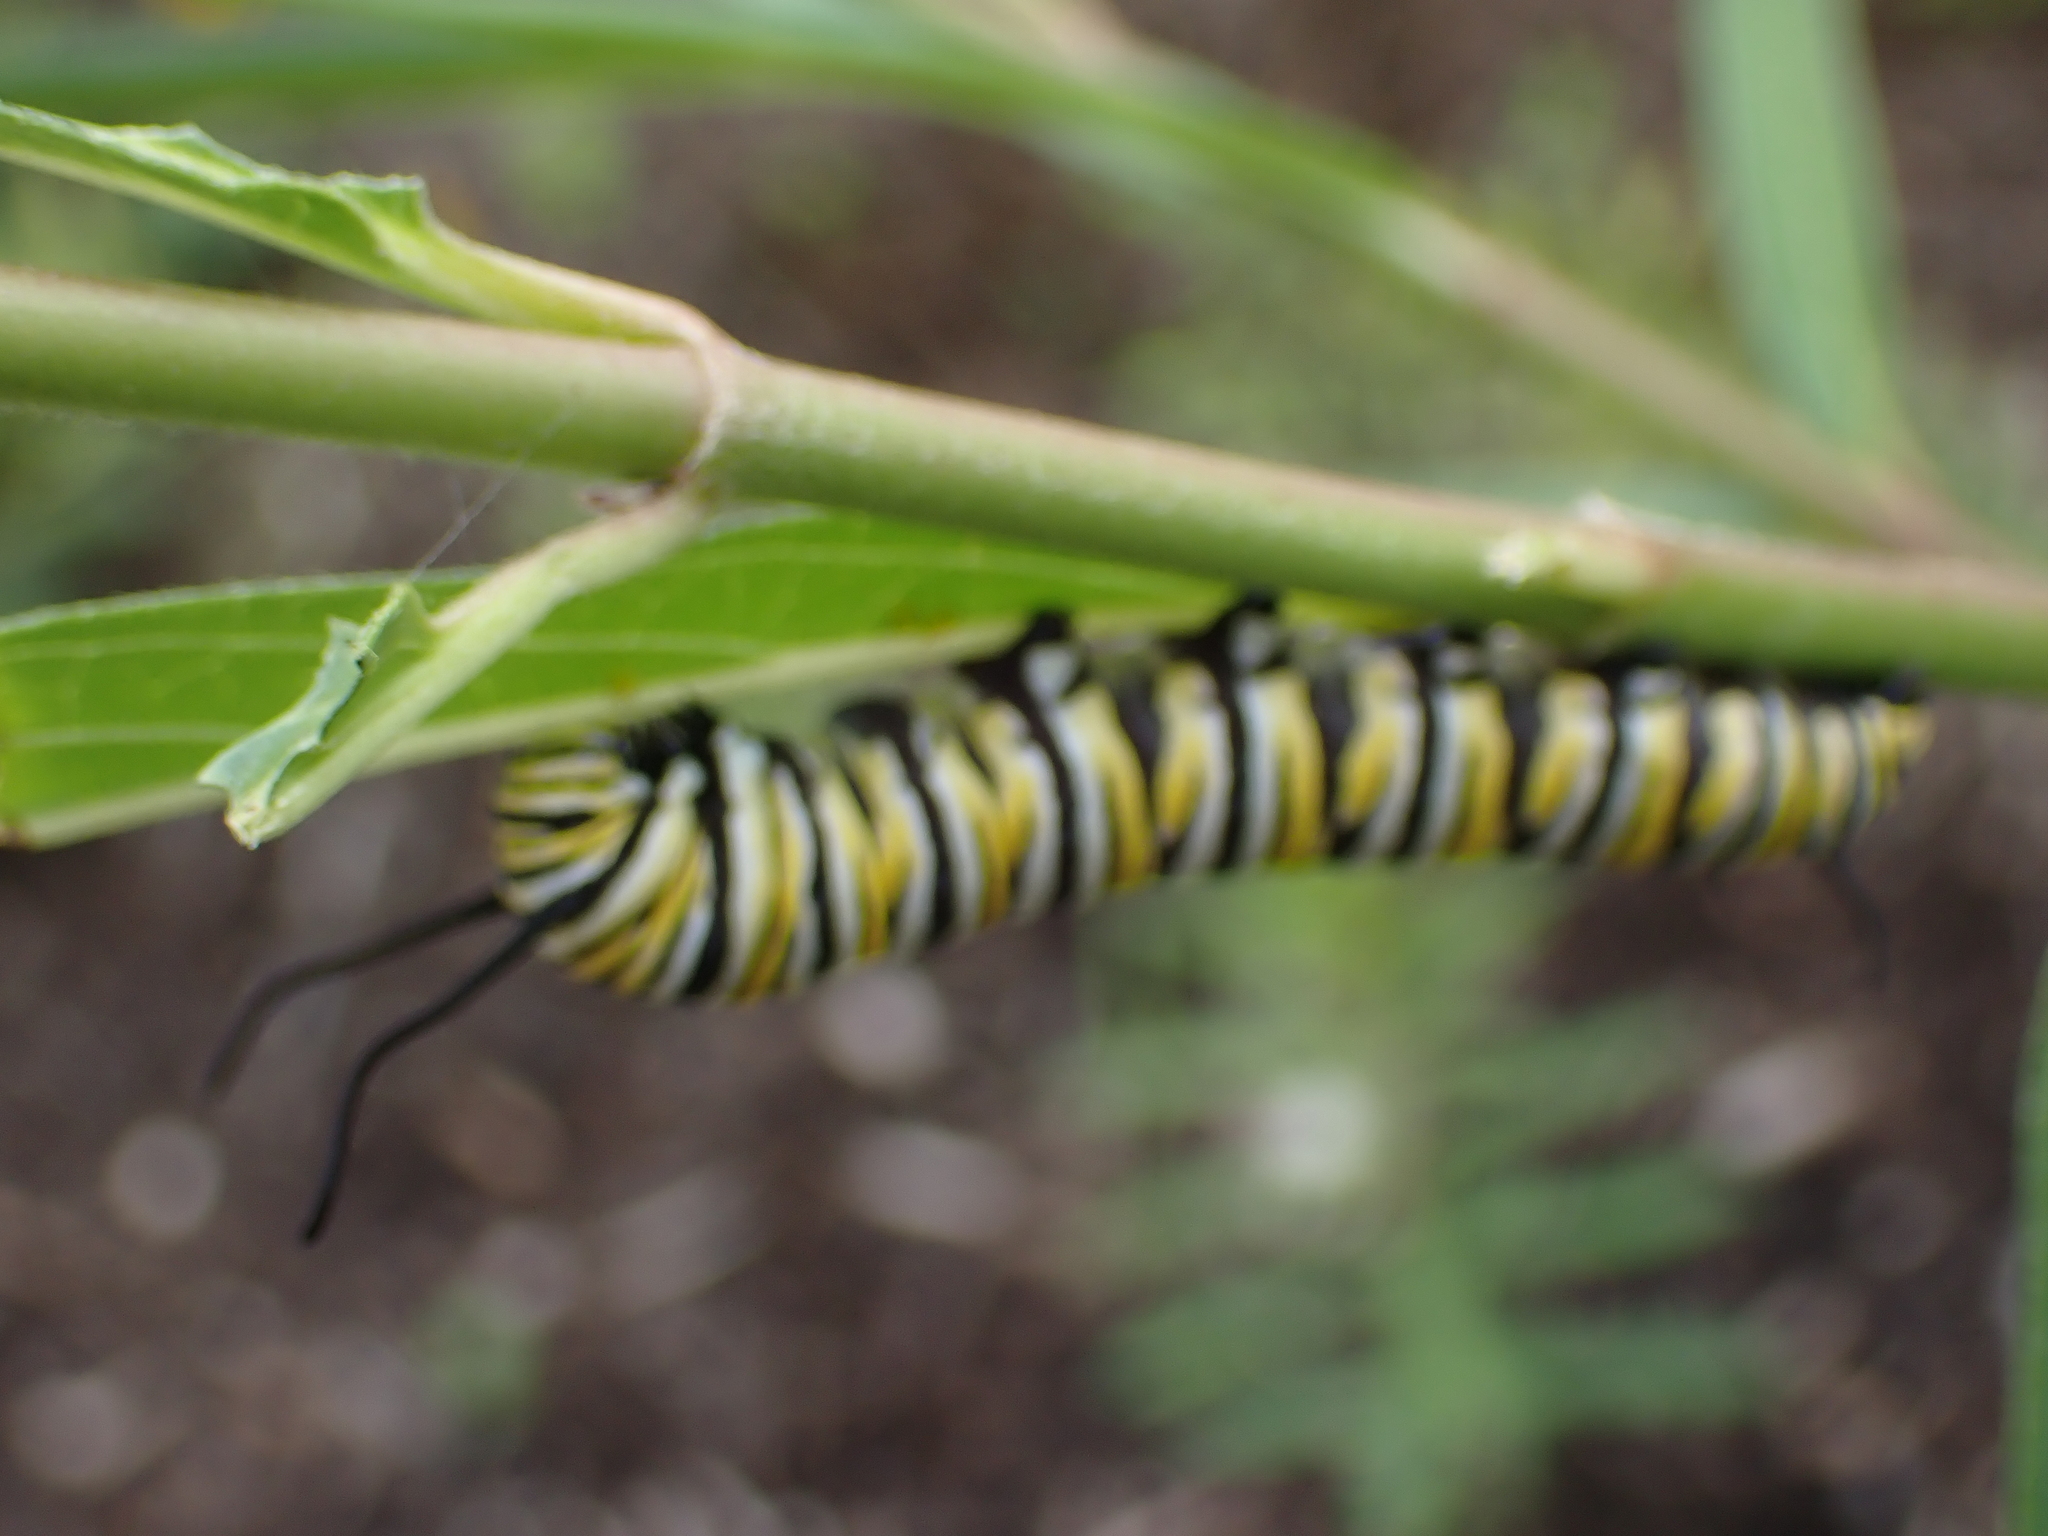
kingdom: Animalia
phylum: Arthropoda
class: Insecta
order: Lepidoptera
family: Nymphalidae
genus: Danaus
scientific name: Danaus plexippus
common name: Monarch
